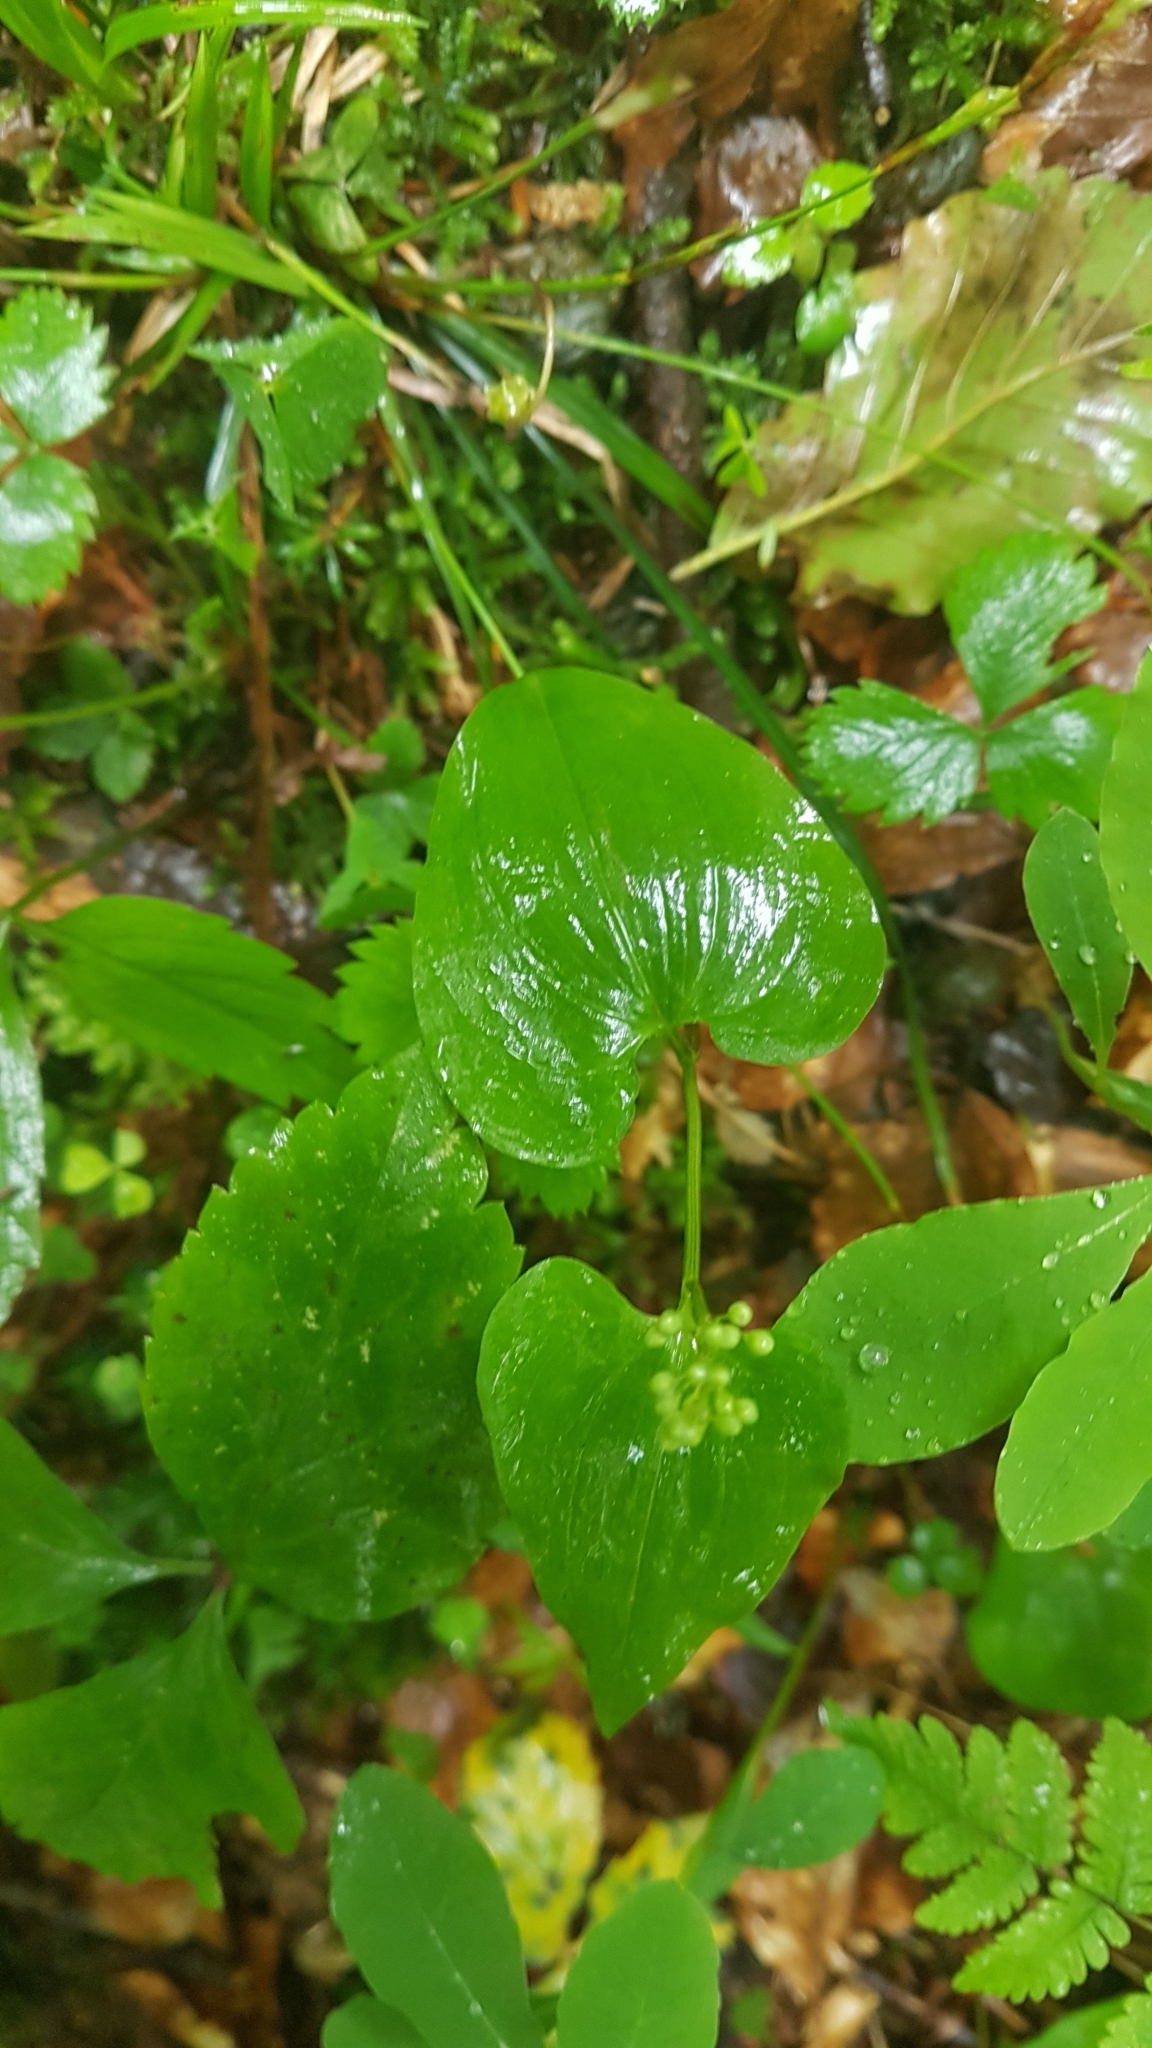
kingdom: Plantae
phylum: Tracheophyta
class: Liliopsida
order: Asparagales
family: Asparagaceae
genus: Maianthemum
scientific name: Maianthemum bifolium
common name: May lily
